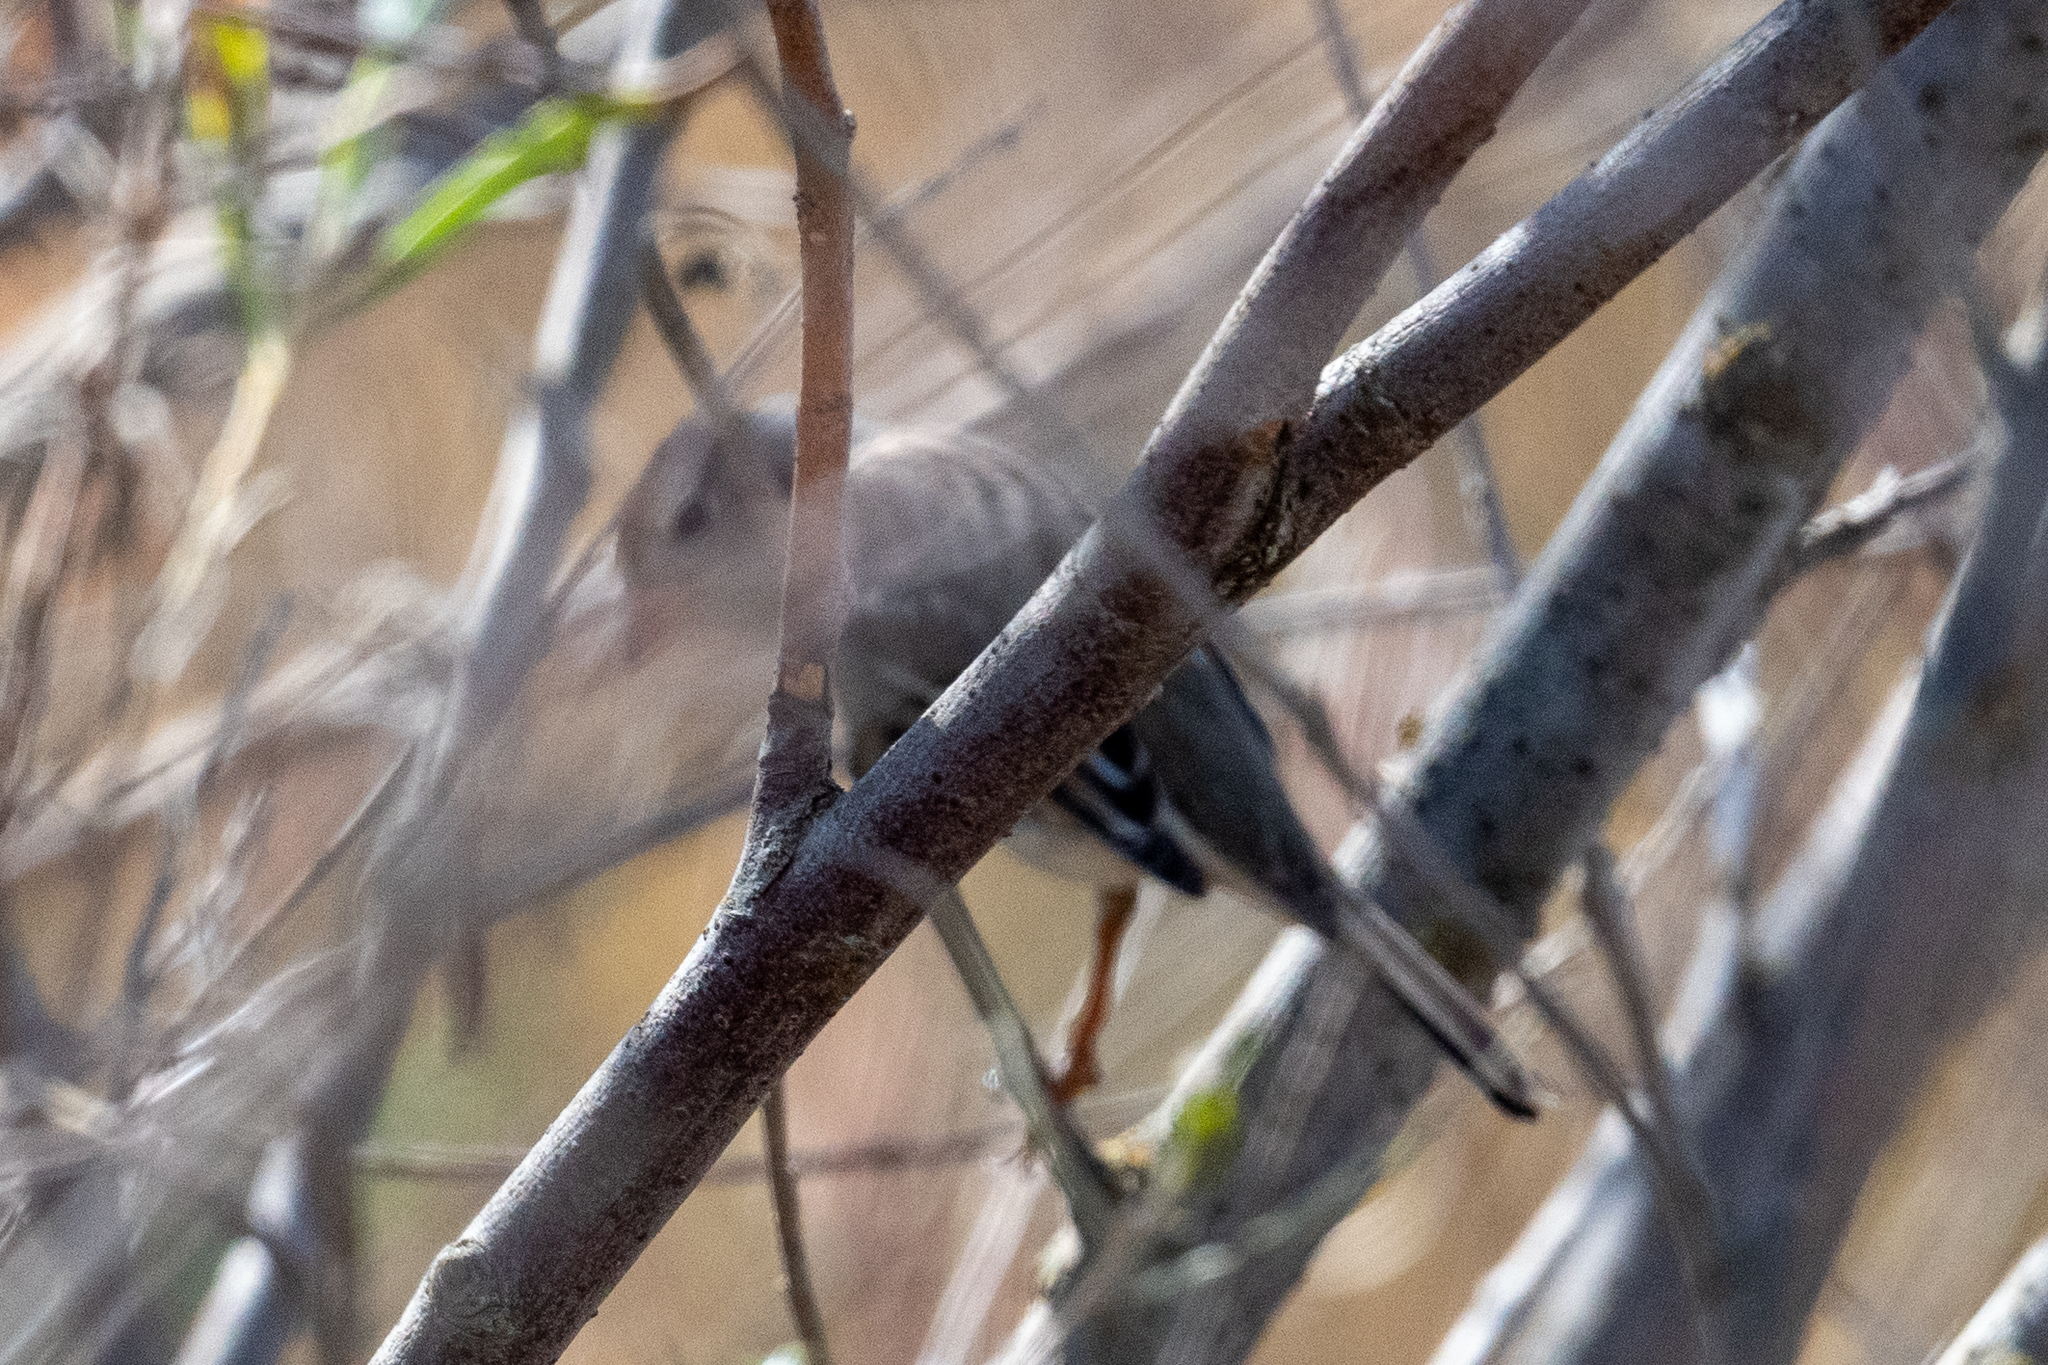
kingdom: Animalia
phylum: Chordata
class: Aves
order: Passeriformes
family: Passerellidae
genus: Zonotrichia
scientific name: Zonotrichia leucophrys
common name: White-crowned sparrow
